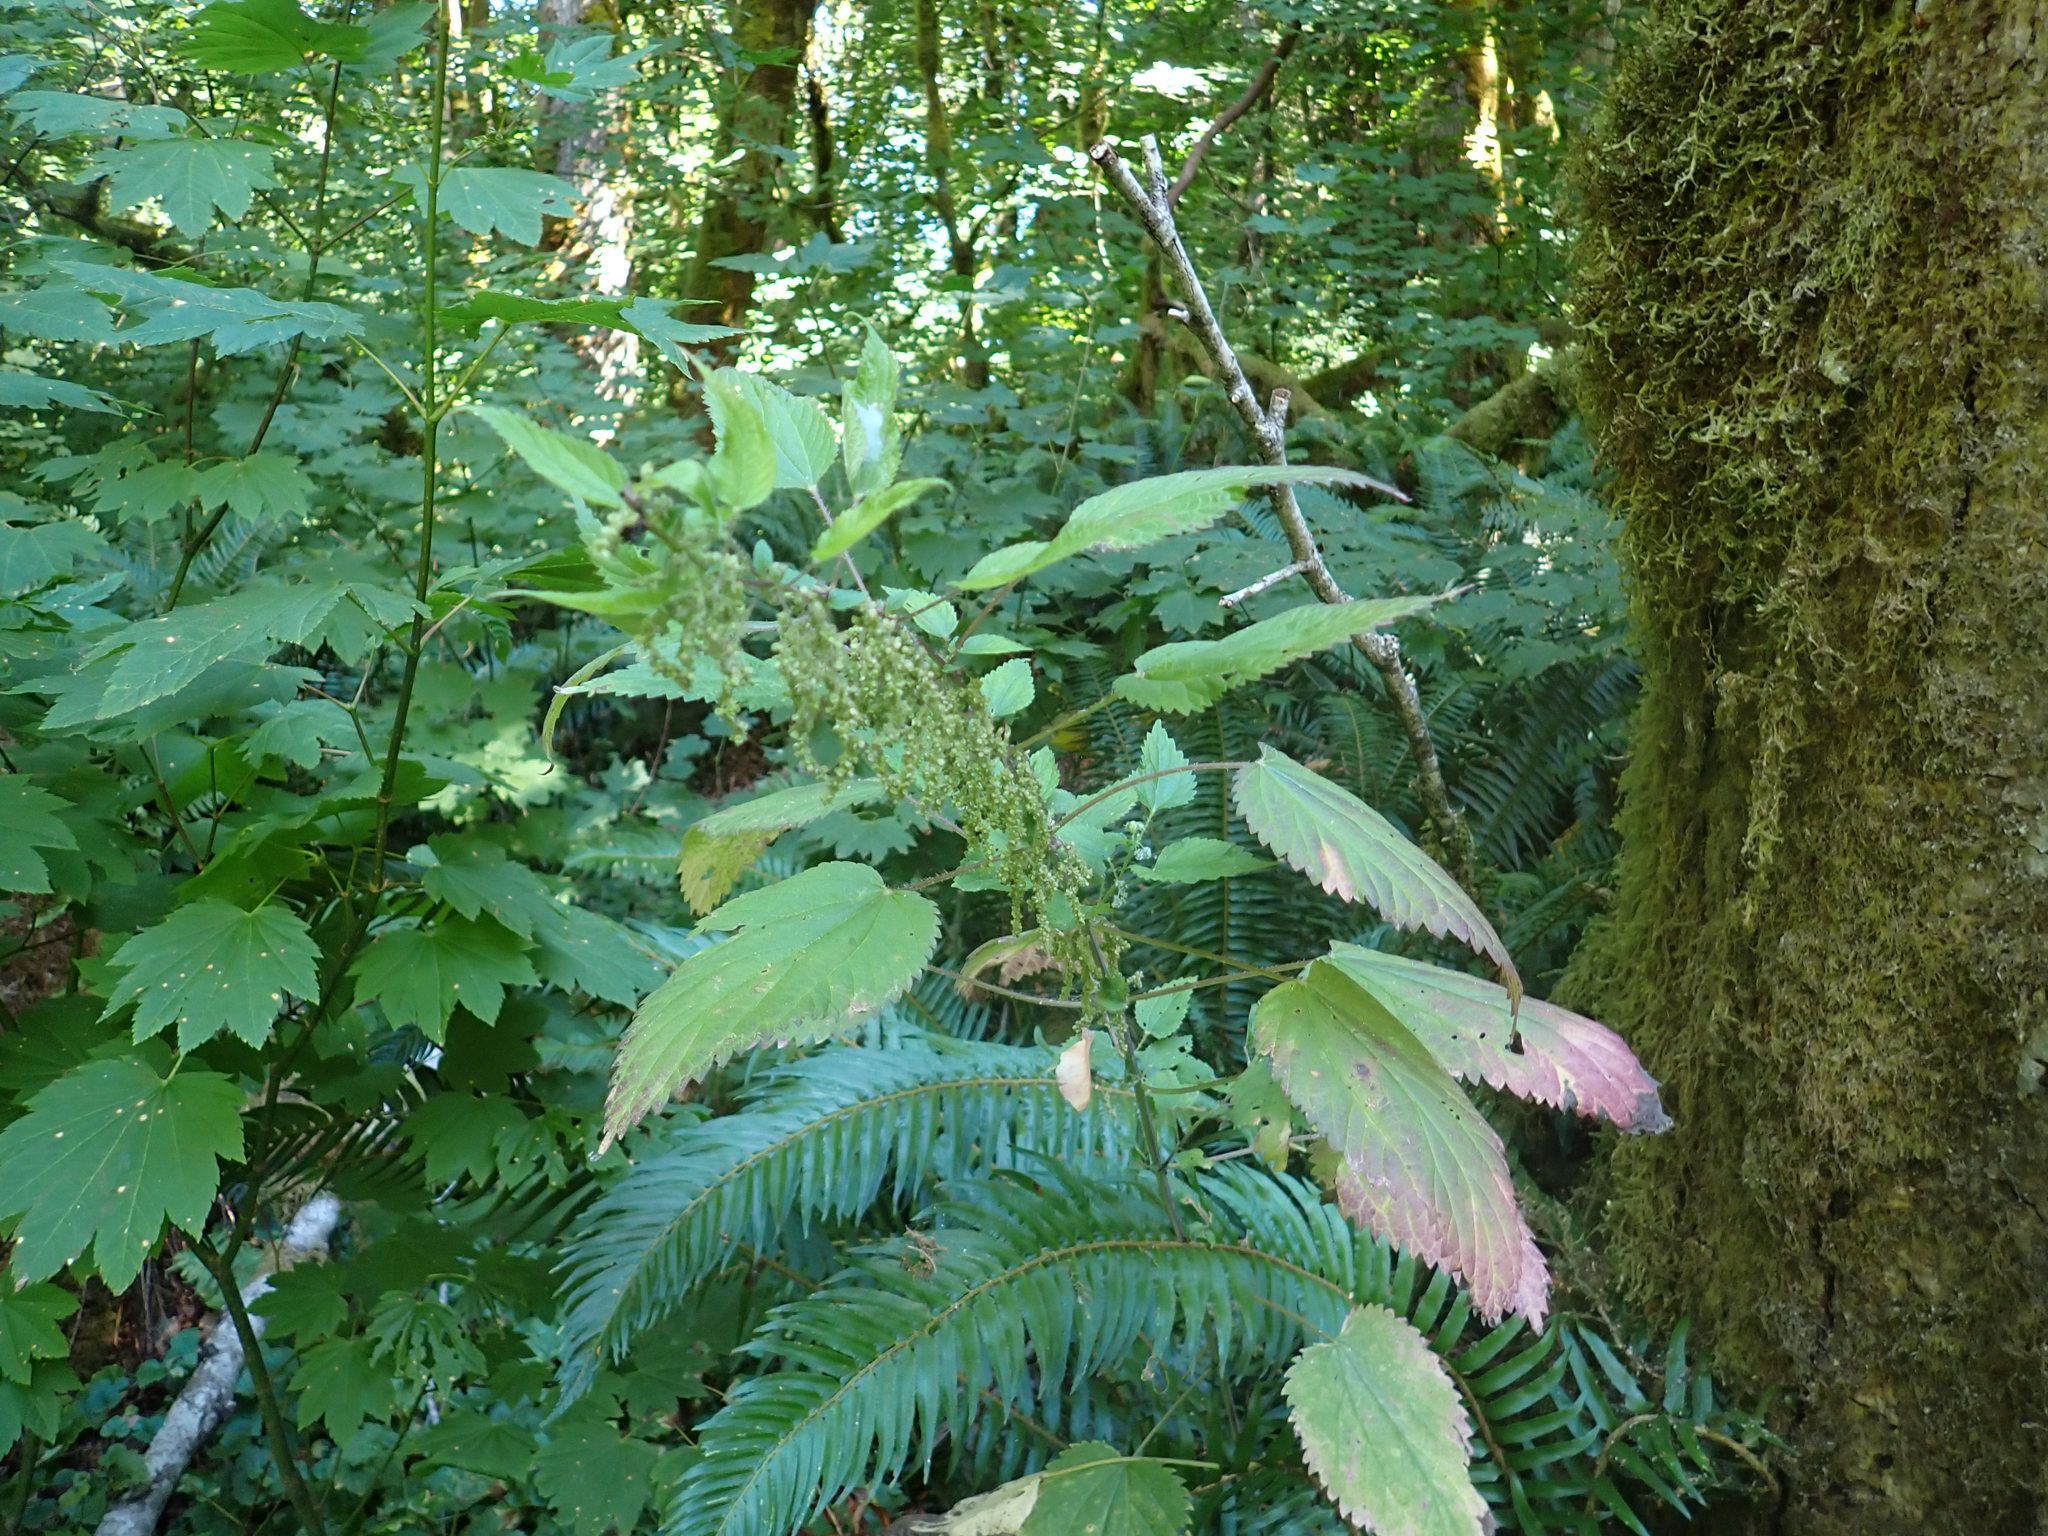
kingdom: Plantae
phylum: Tracheophyta
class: Magnoliopsida
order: Rosales
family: Urticaceae
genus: Urtica
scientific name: Urtica gracilis
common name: Slender stinging nettle
